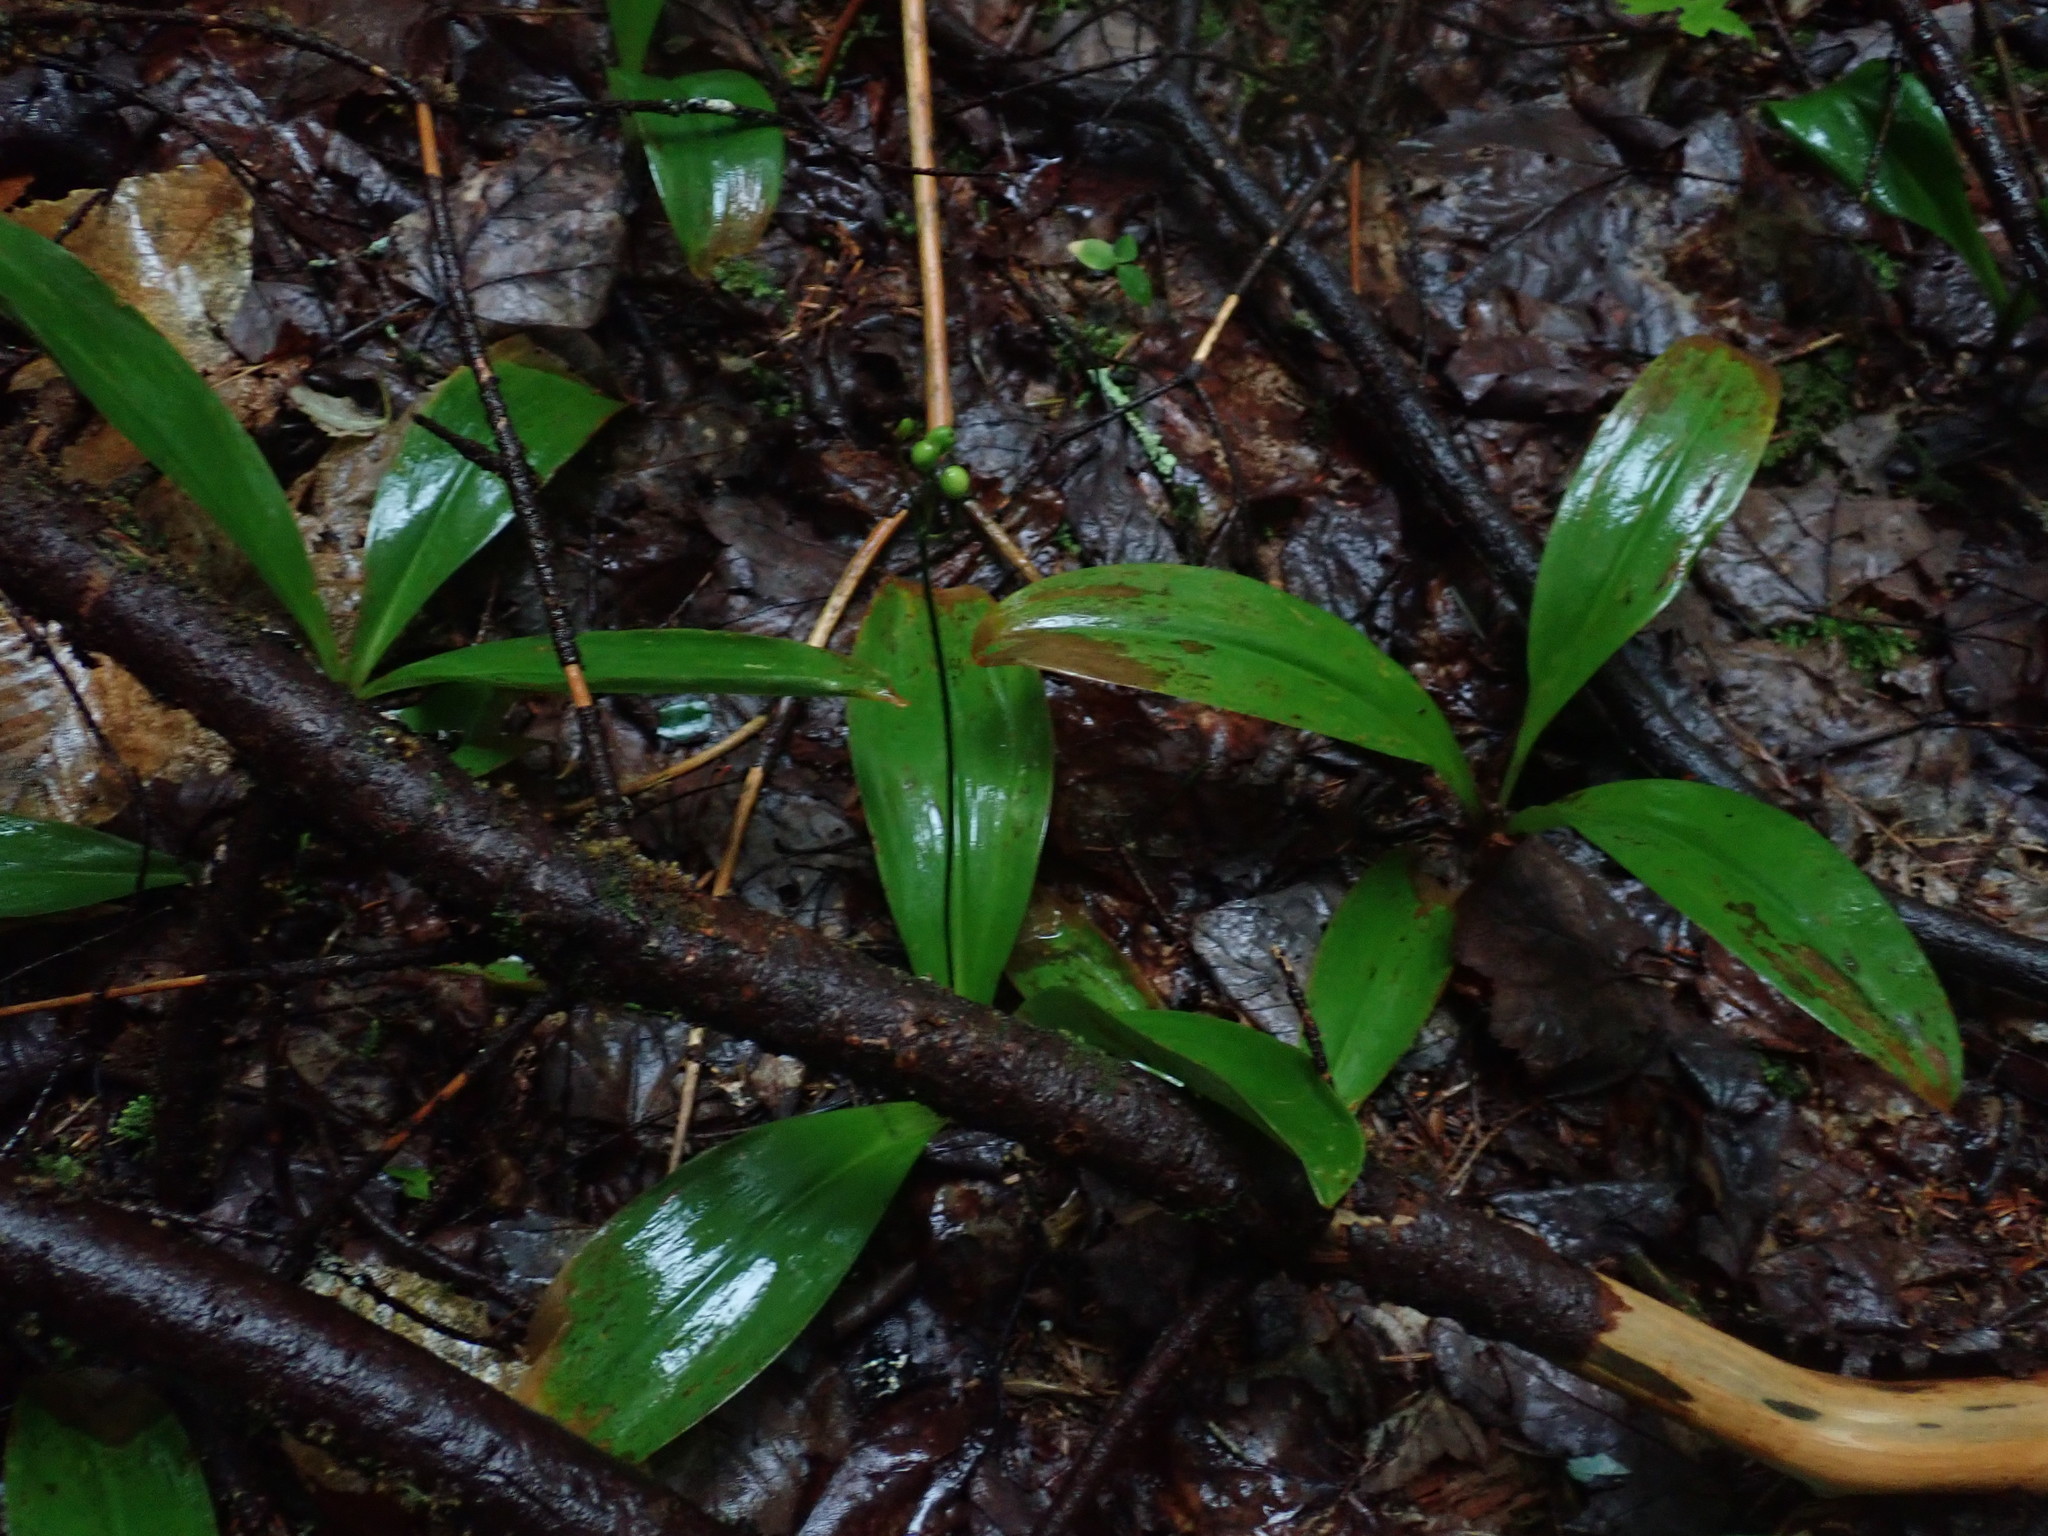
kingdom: Plantae
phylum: Tracheophyta
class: Liliopsida
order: Liliales
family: Liliaceae
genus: Clintonia
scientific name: Clintonia borealis
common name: Yellow clintonia
